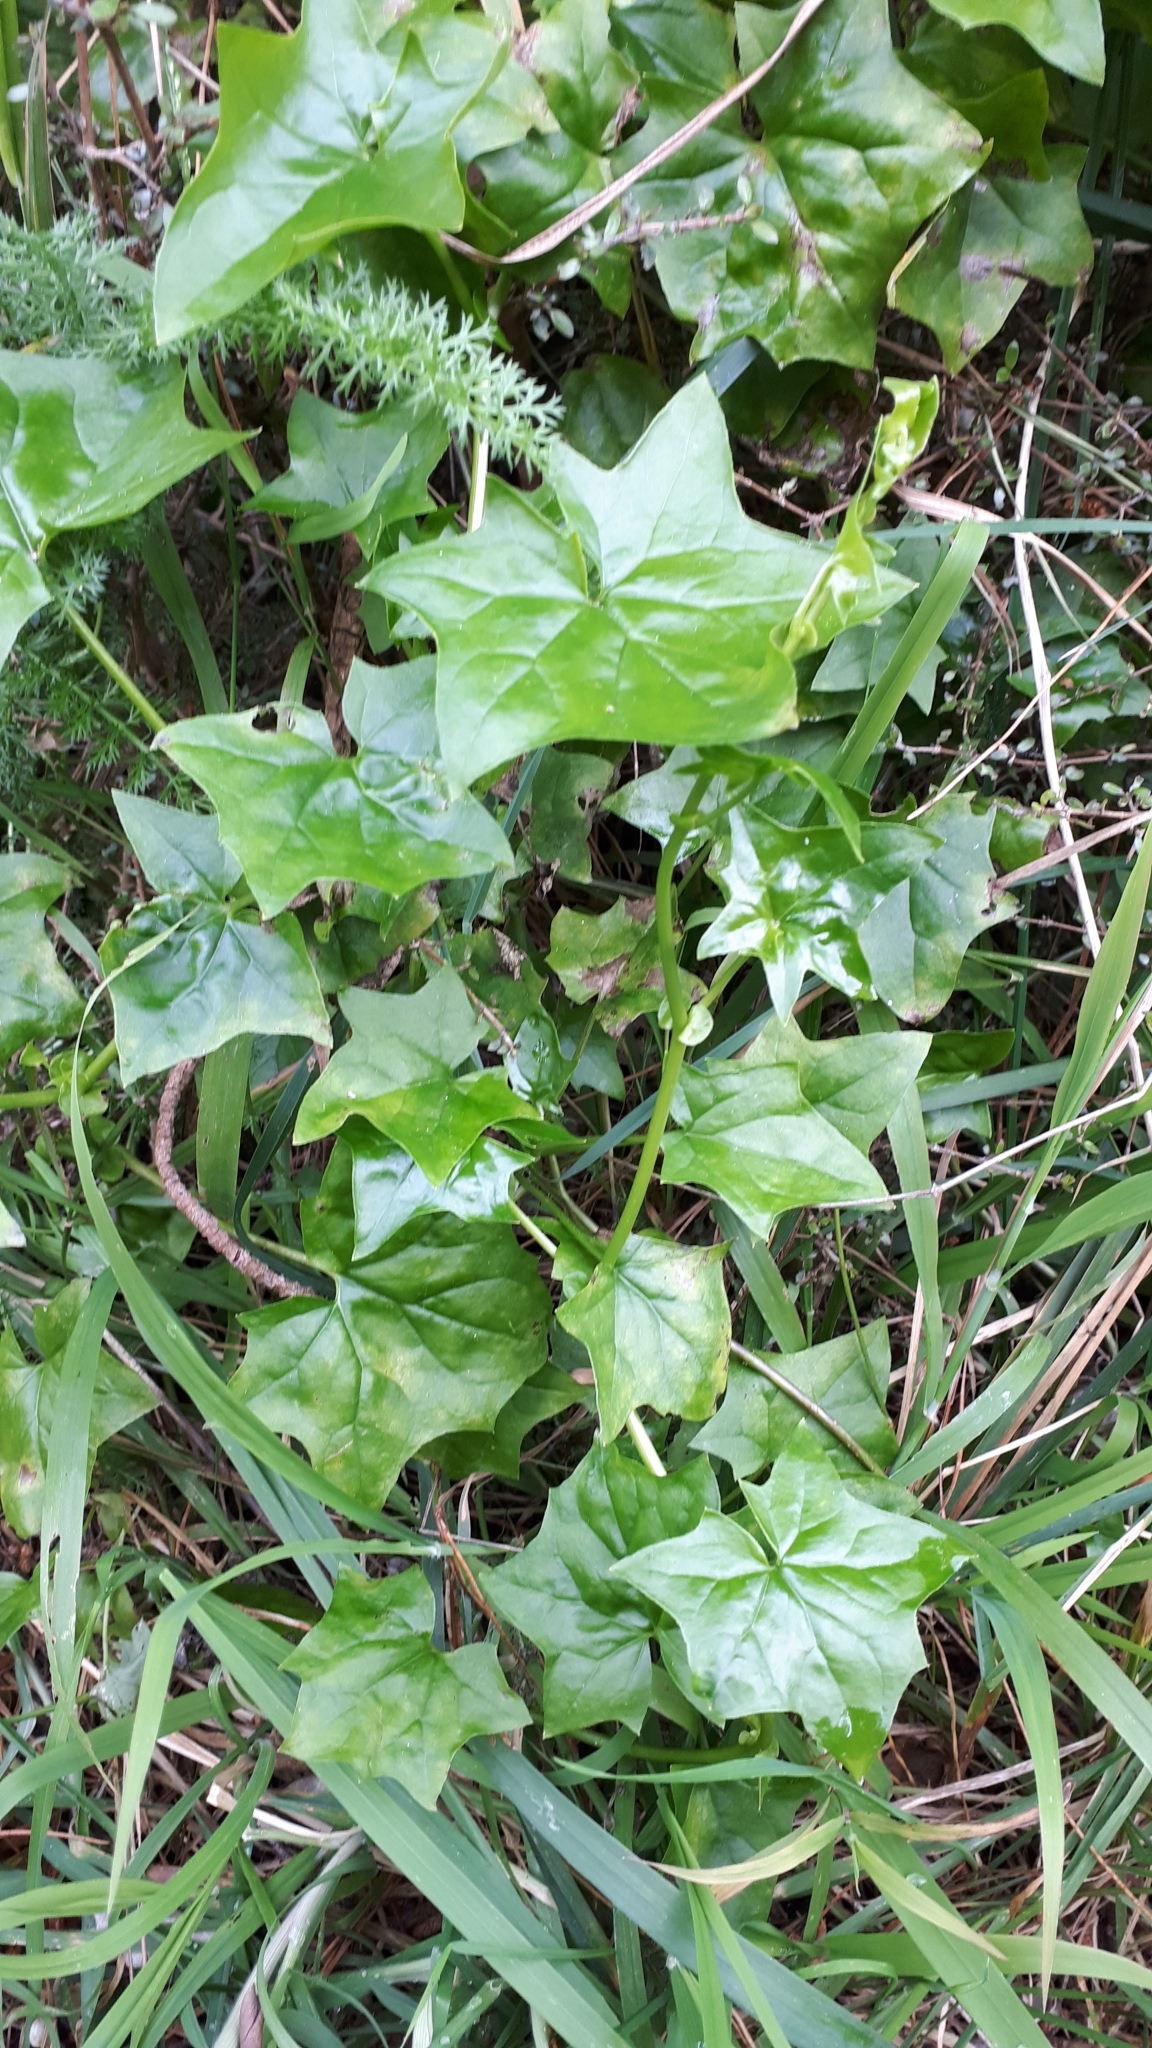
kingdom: Plantae
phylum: Tracheophyta
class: Magnoliopsida
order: Asterales
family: Asteraceae
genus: Delairea
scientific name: Delairea odorata
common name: Cape-ivy
